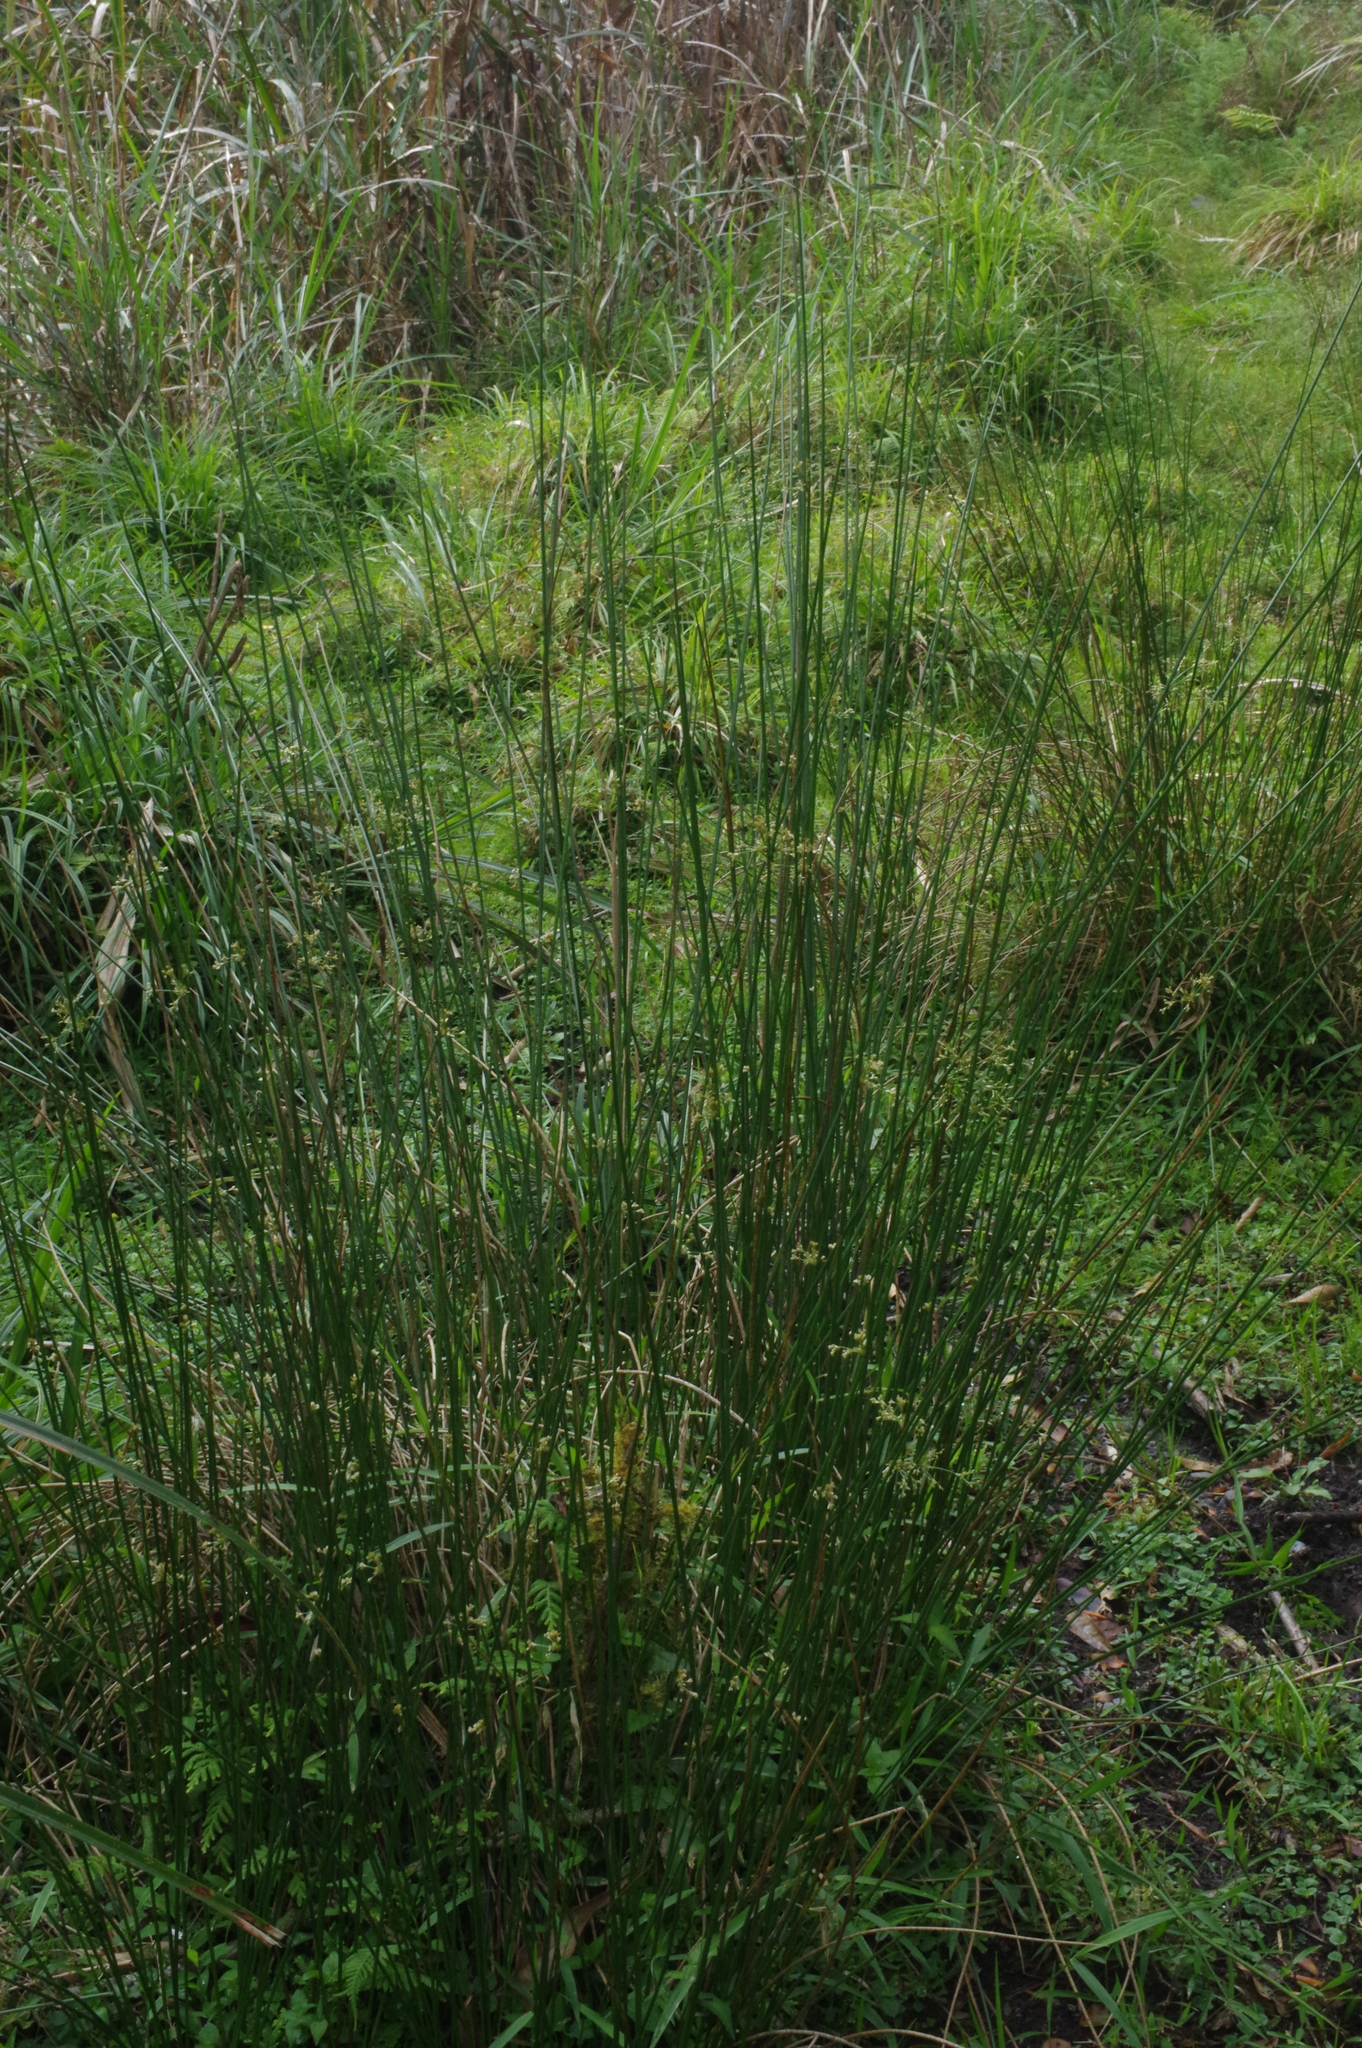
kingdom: Plantae
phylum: Tracheophyta
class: Liliopsida
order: Poales
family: Juncaceae
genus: Juncus
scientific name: Juncus effusus
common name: Soft rush
